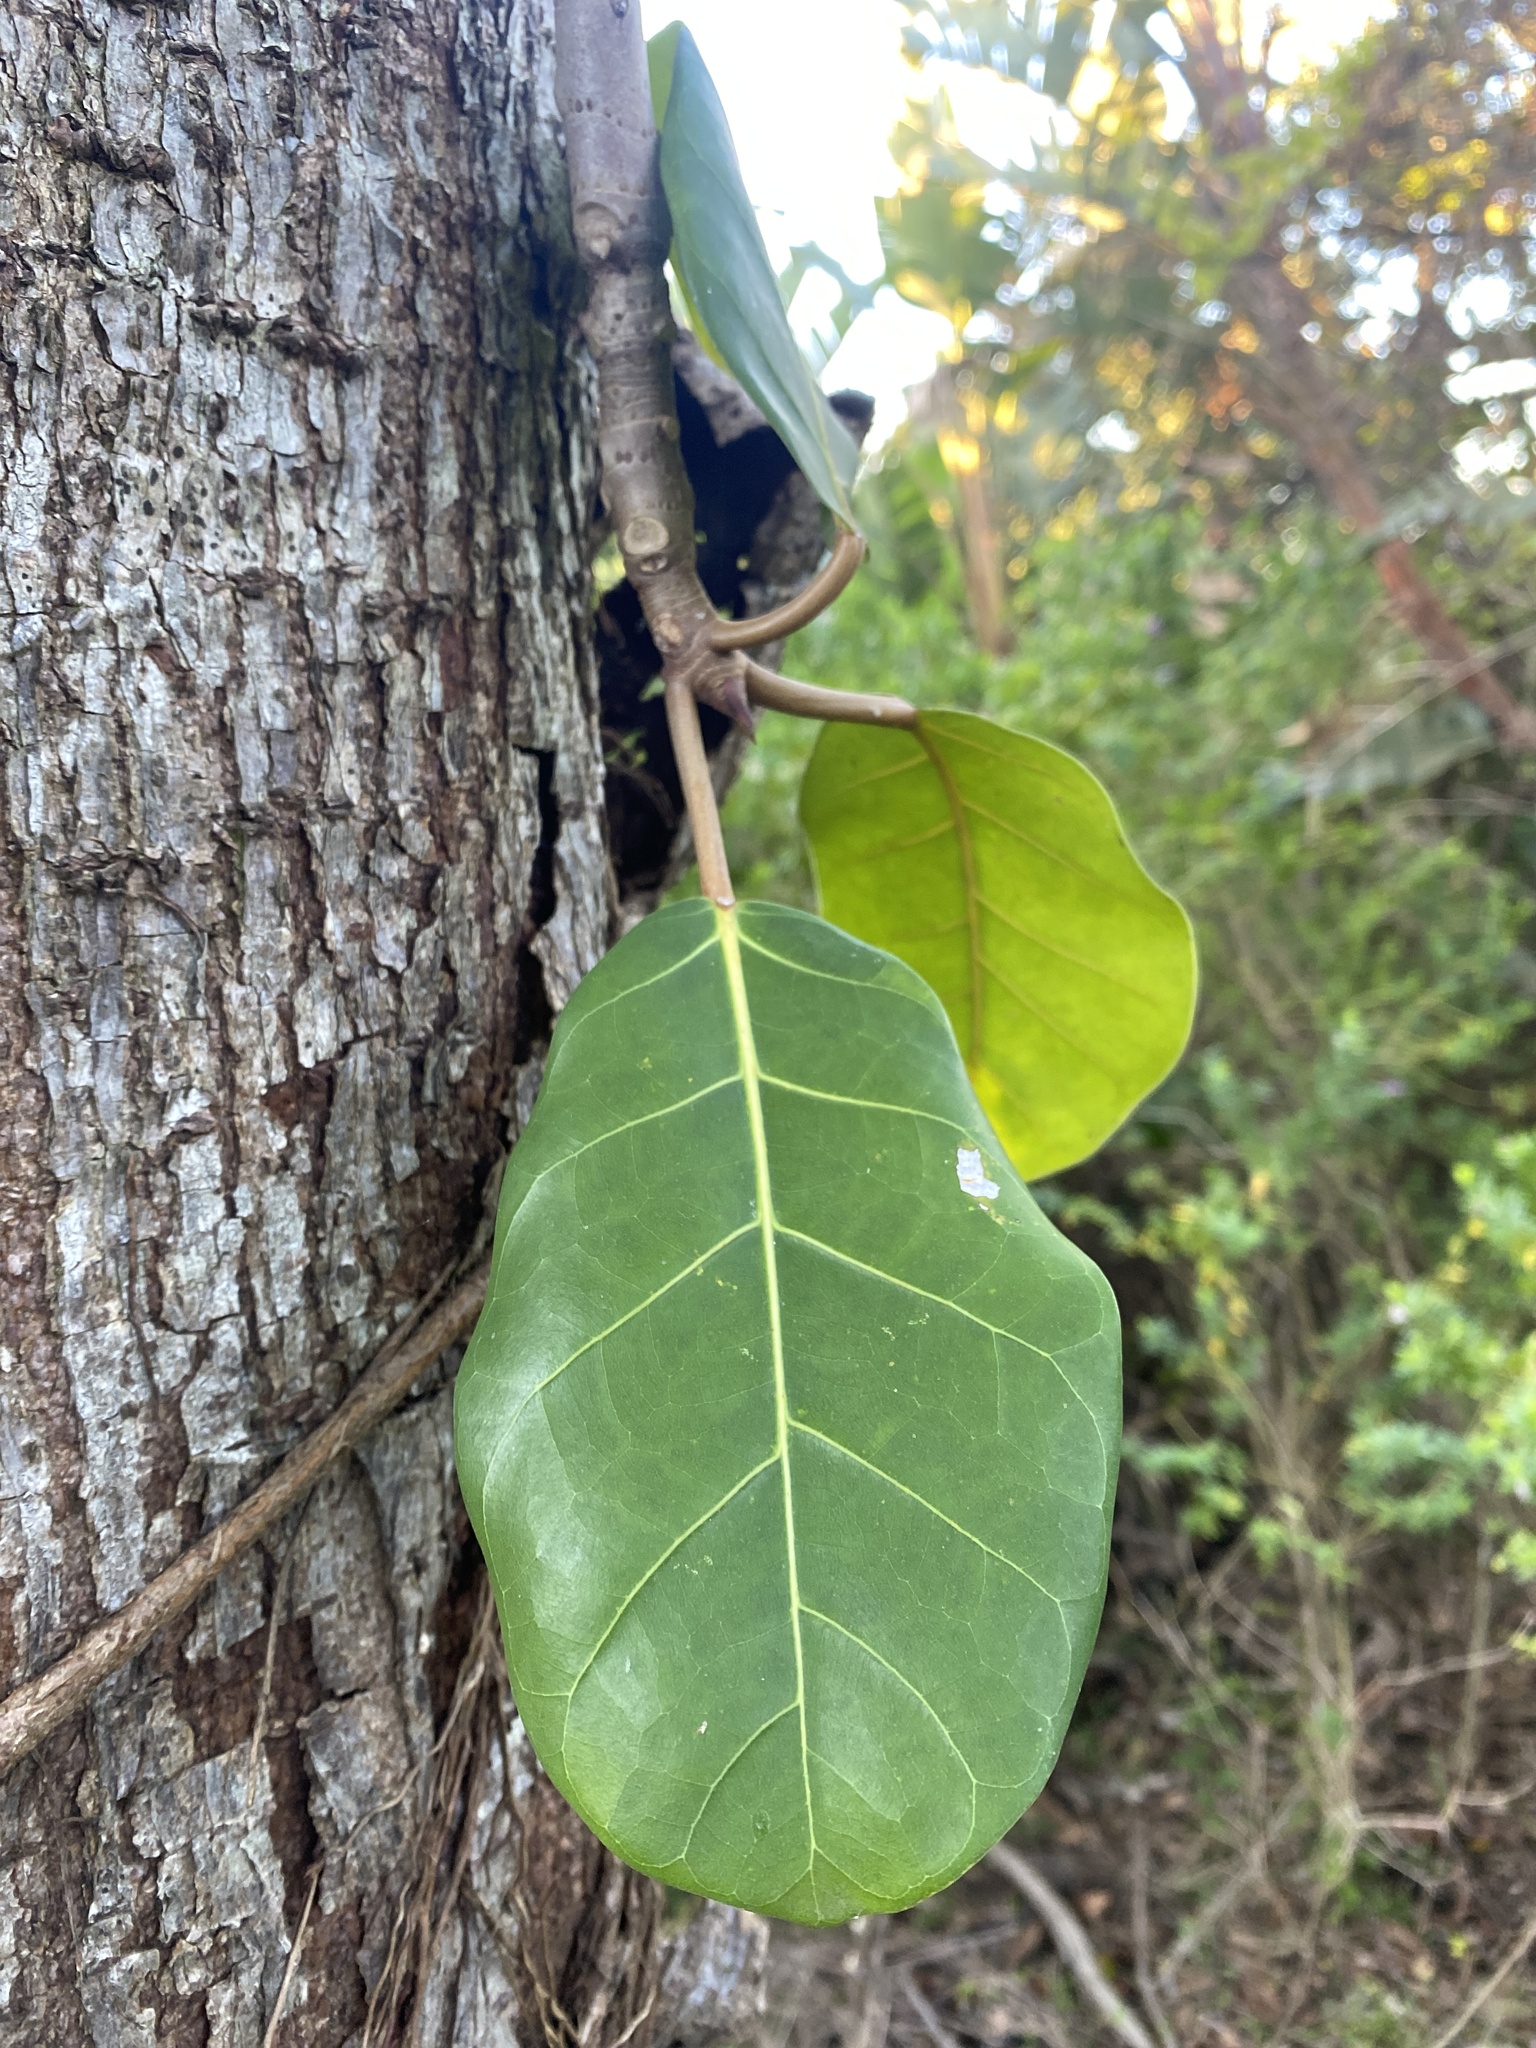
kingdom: Plantae
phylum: Tracheophyta
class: Magnoliopsida
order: Rosales
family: Moraceae
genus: Ficus
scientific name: Ficus lutea
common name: Giant-leaved fig
